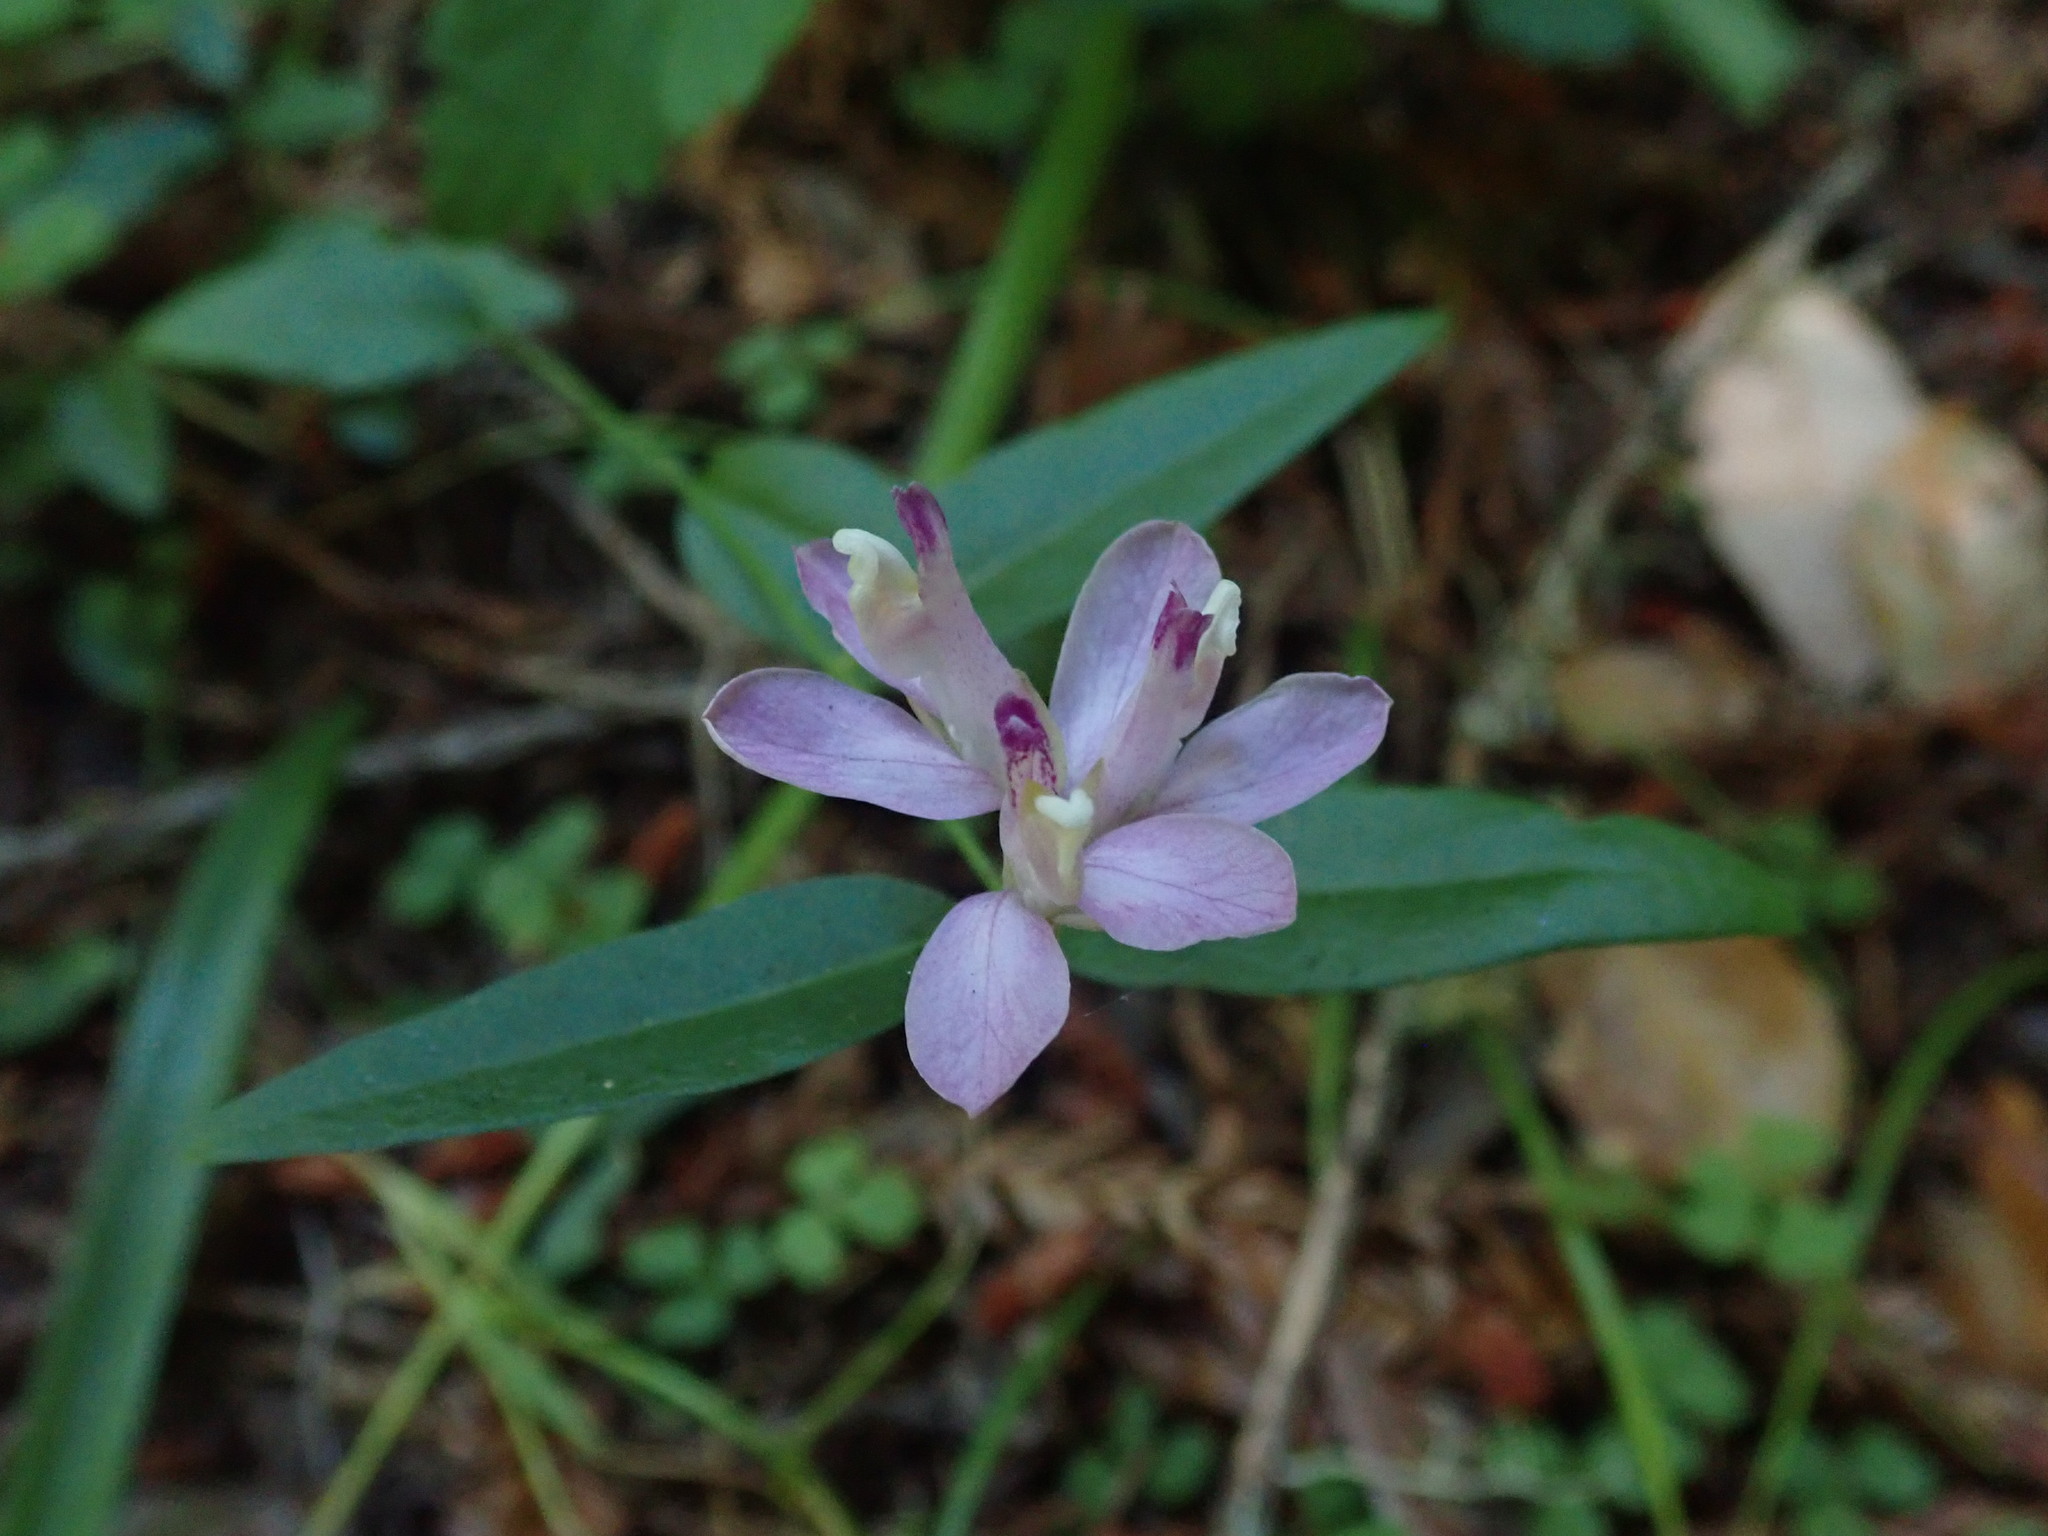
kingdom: Plantae
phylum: Tracheophyta
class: Magnoliopsida
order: Fabales
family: Polygalaceae
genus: Rhinotropis
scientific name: Rhinotropis californica
